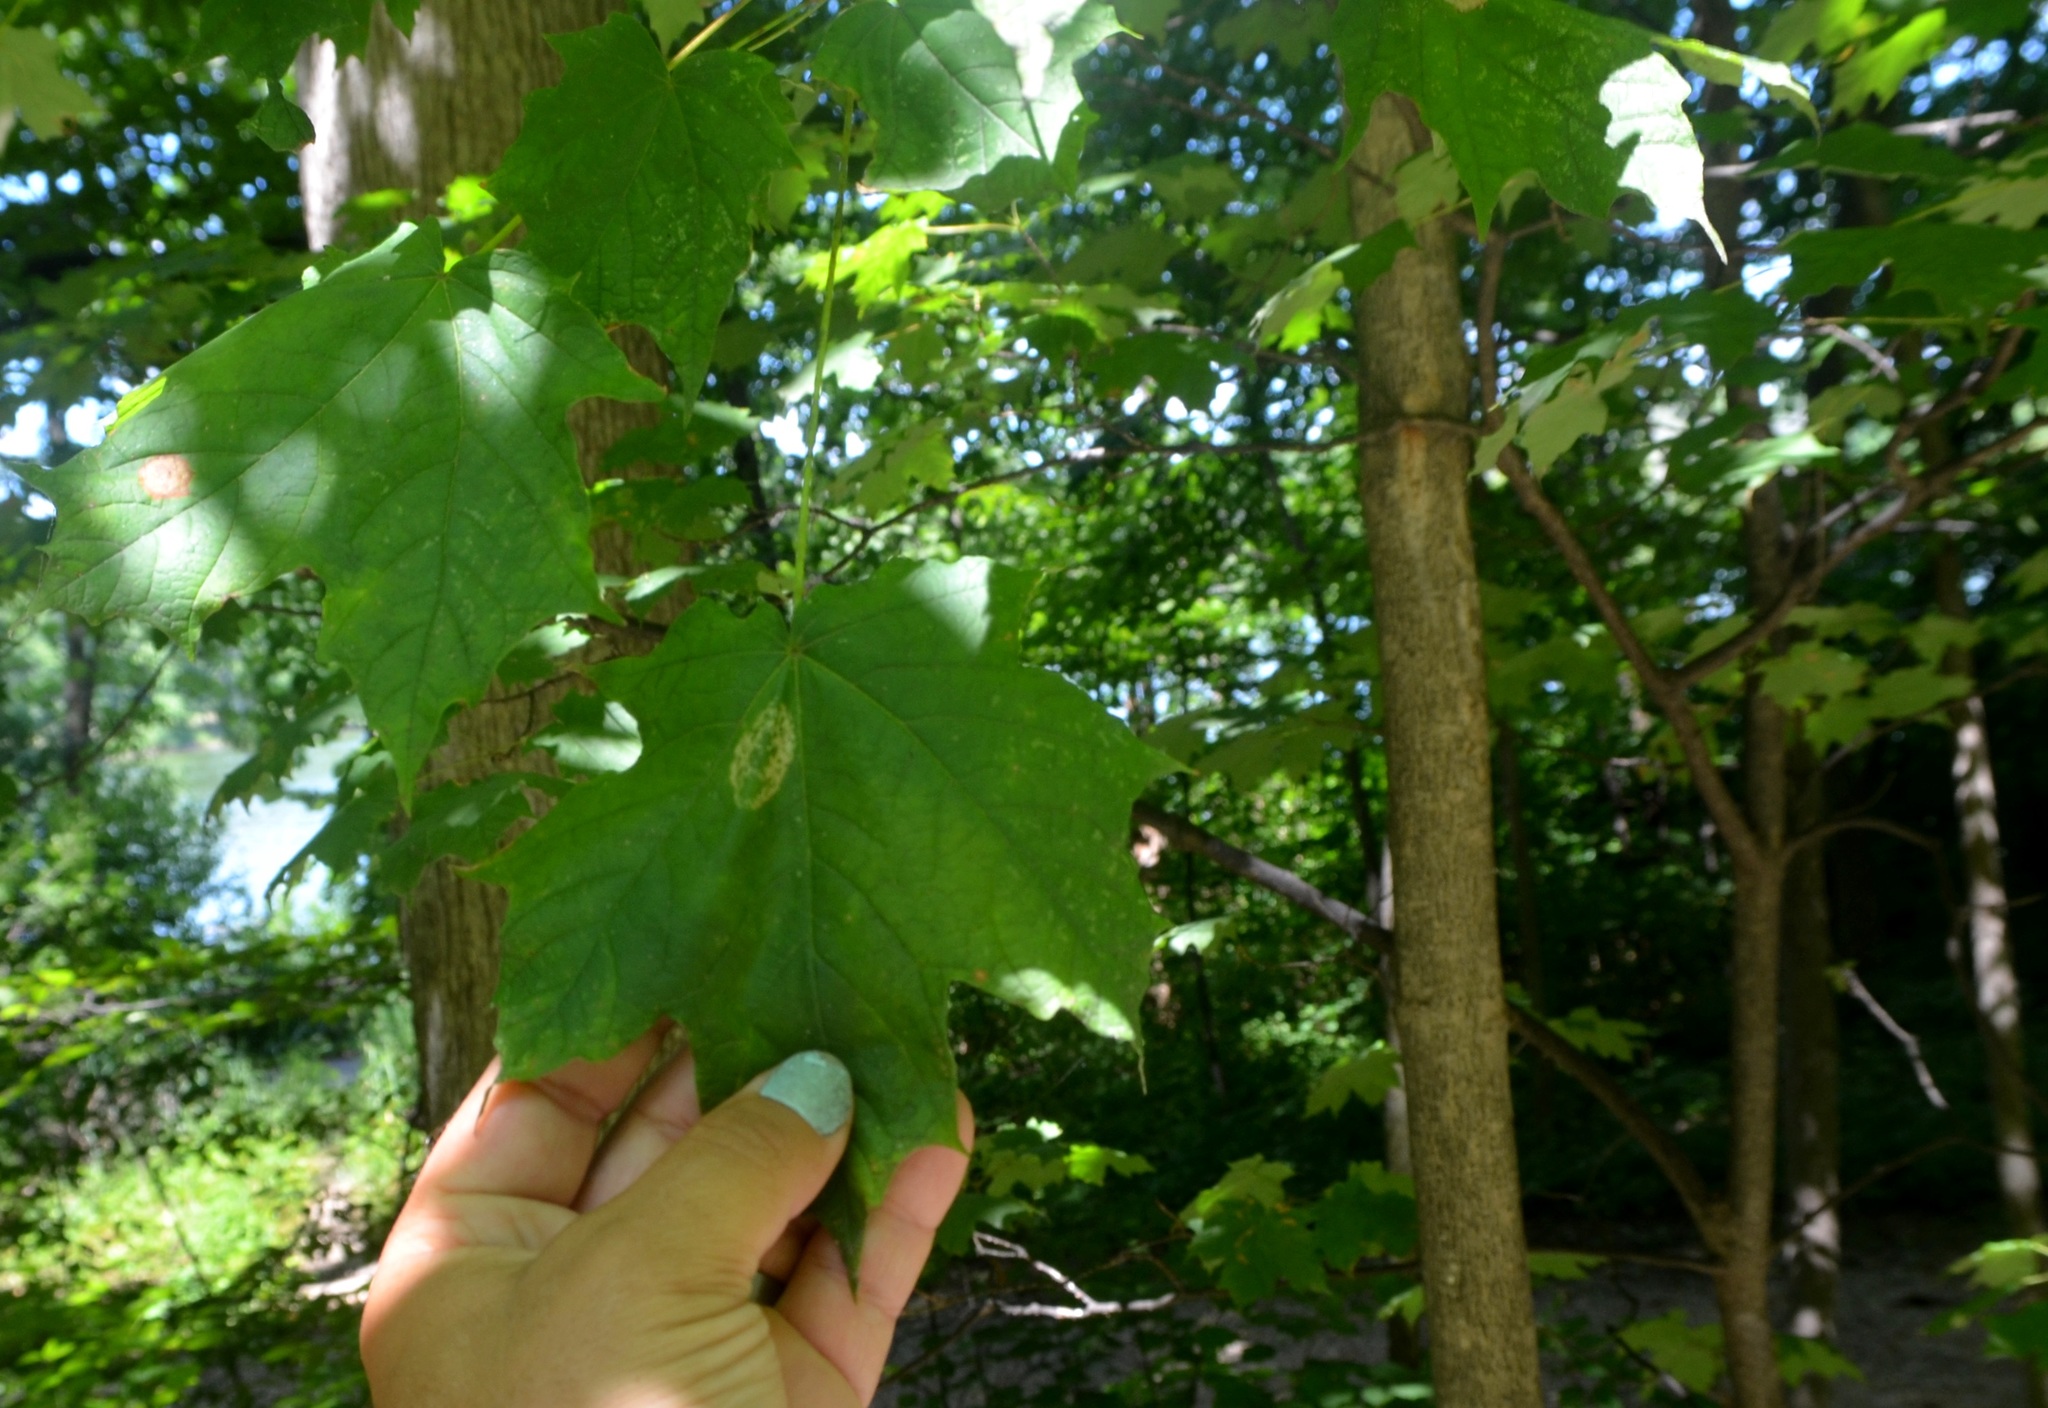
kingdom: Plantae
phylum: Tracheophyta
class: Magnoliopsida
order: Sapindales
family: Sapindaceae
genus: Acer
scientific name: Acer saccharum
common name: Sugar maple
